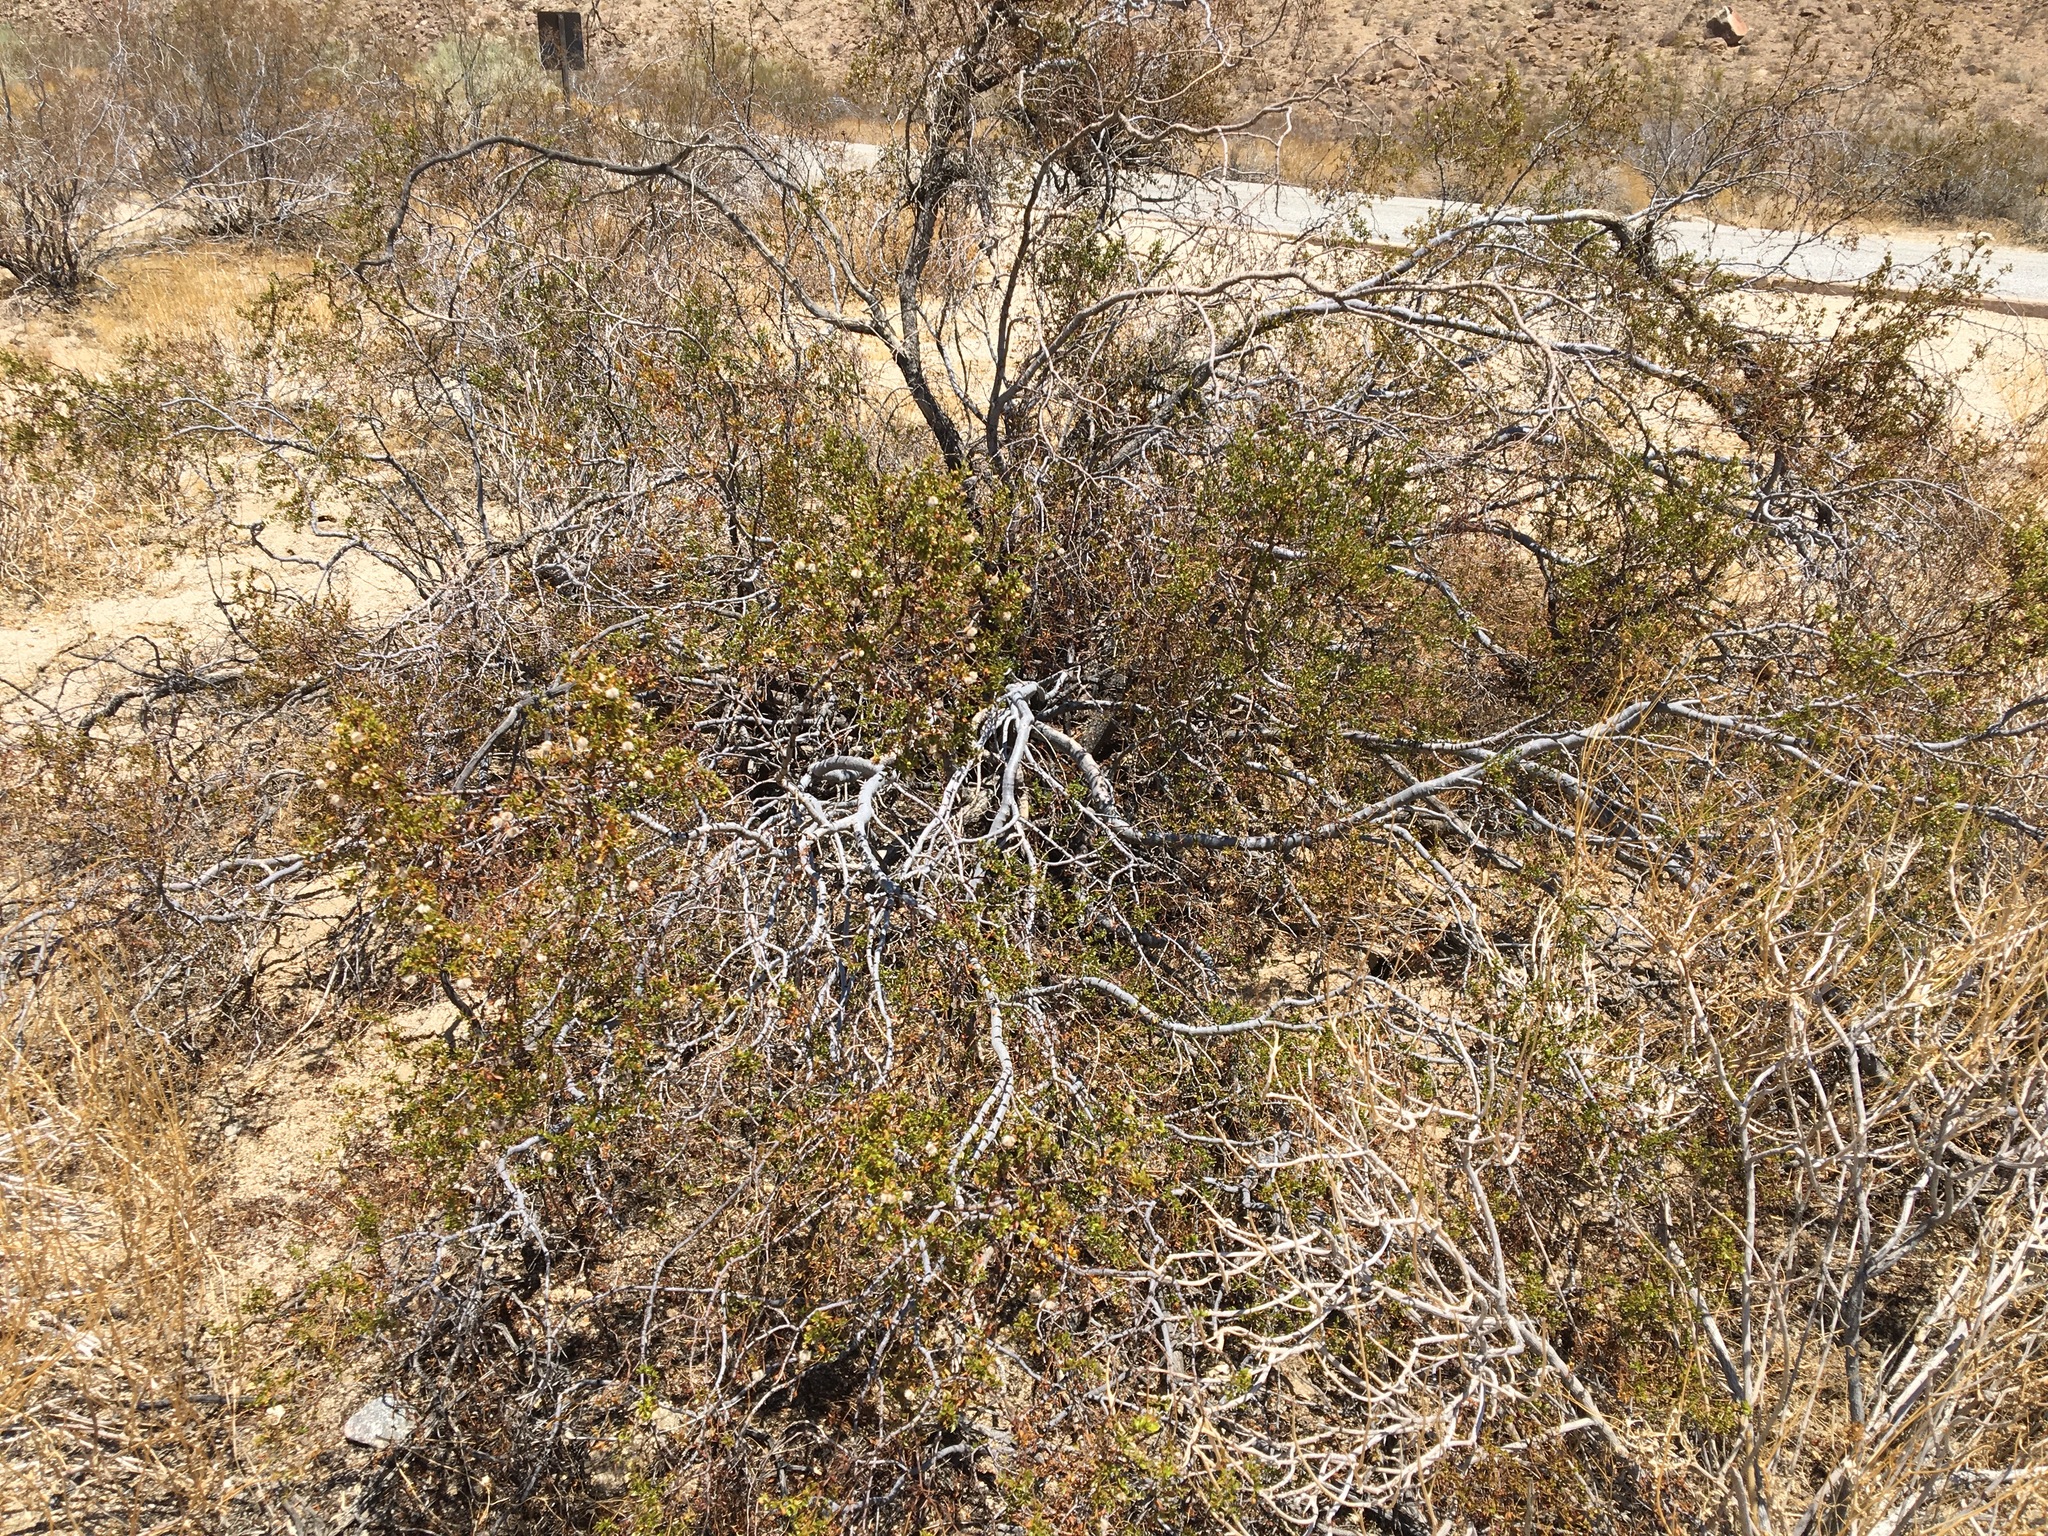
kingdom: Plantae
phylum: Tracheophyta
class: Magnoliopsida
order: Zygophyllales
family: Zygophyllaceae
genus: Larrea
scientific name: Larrea tridentata
